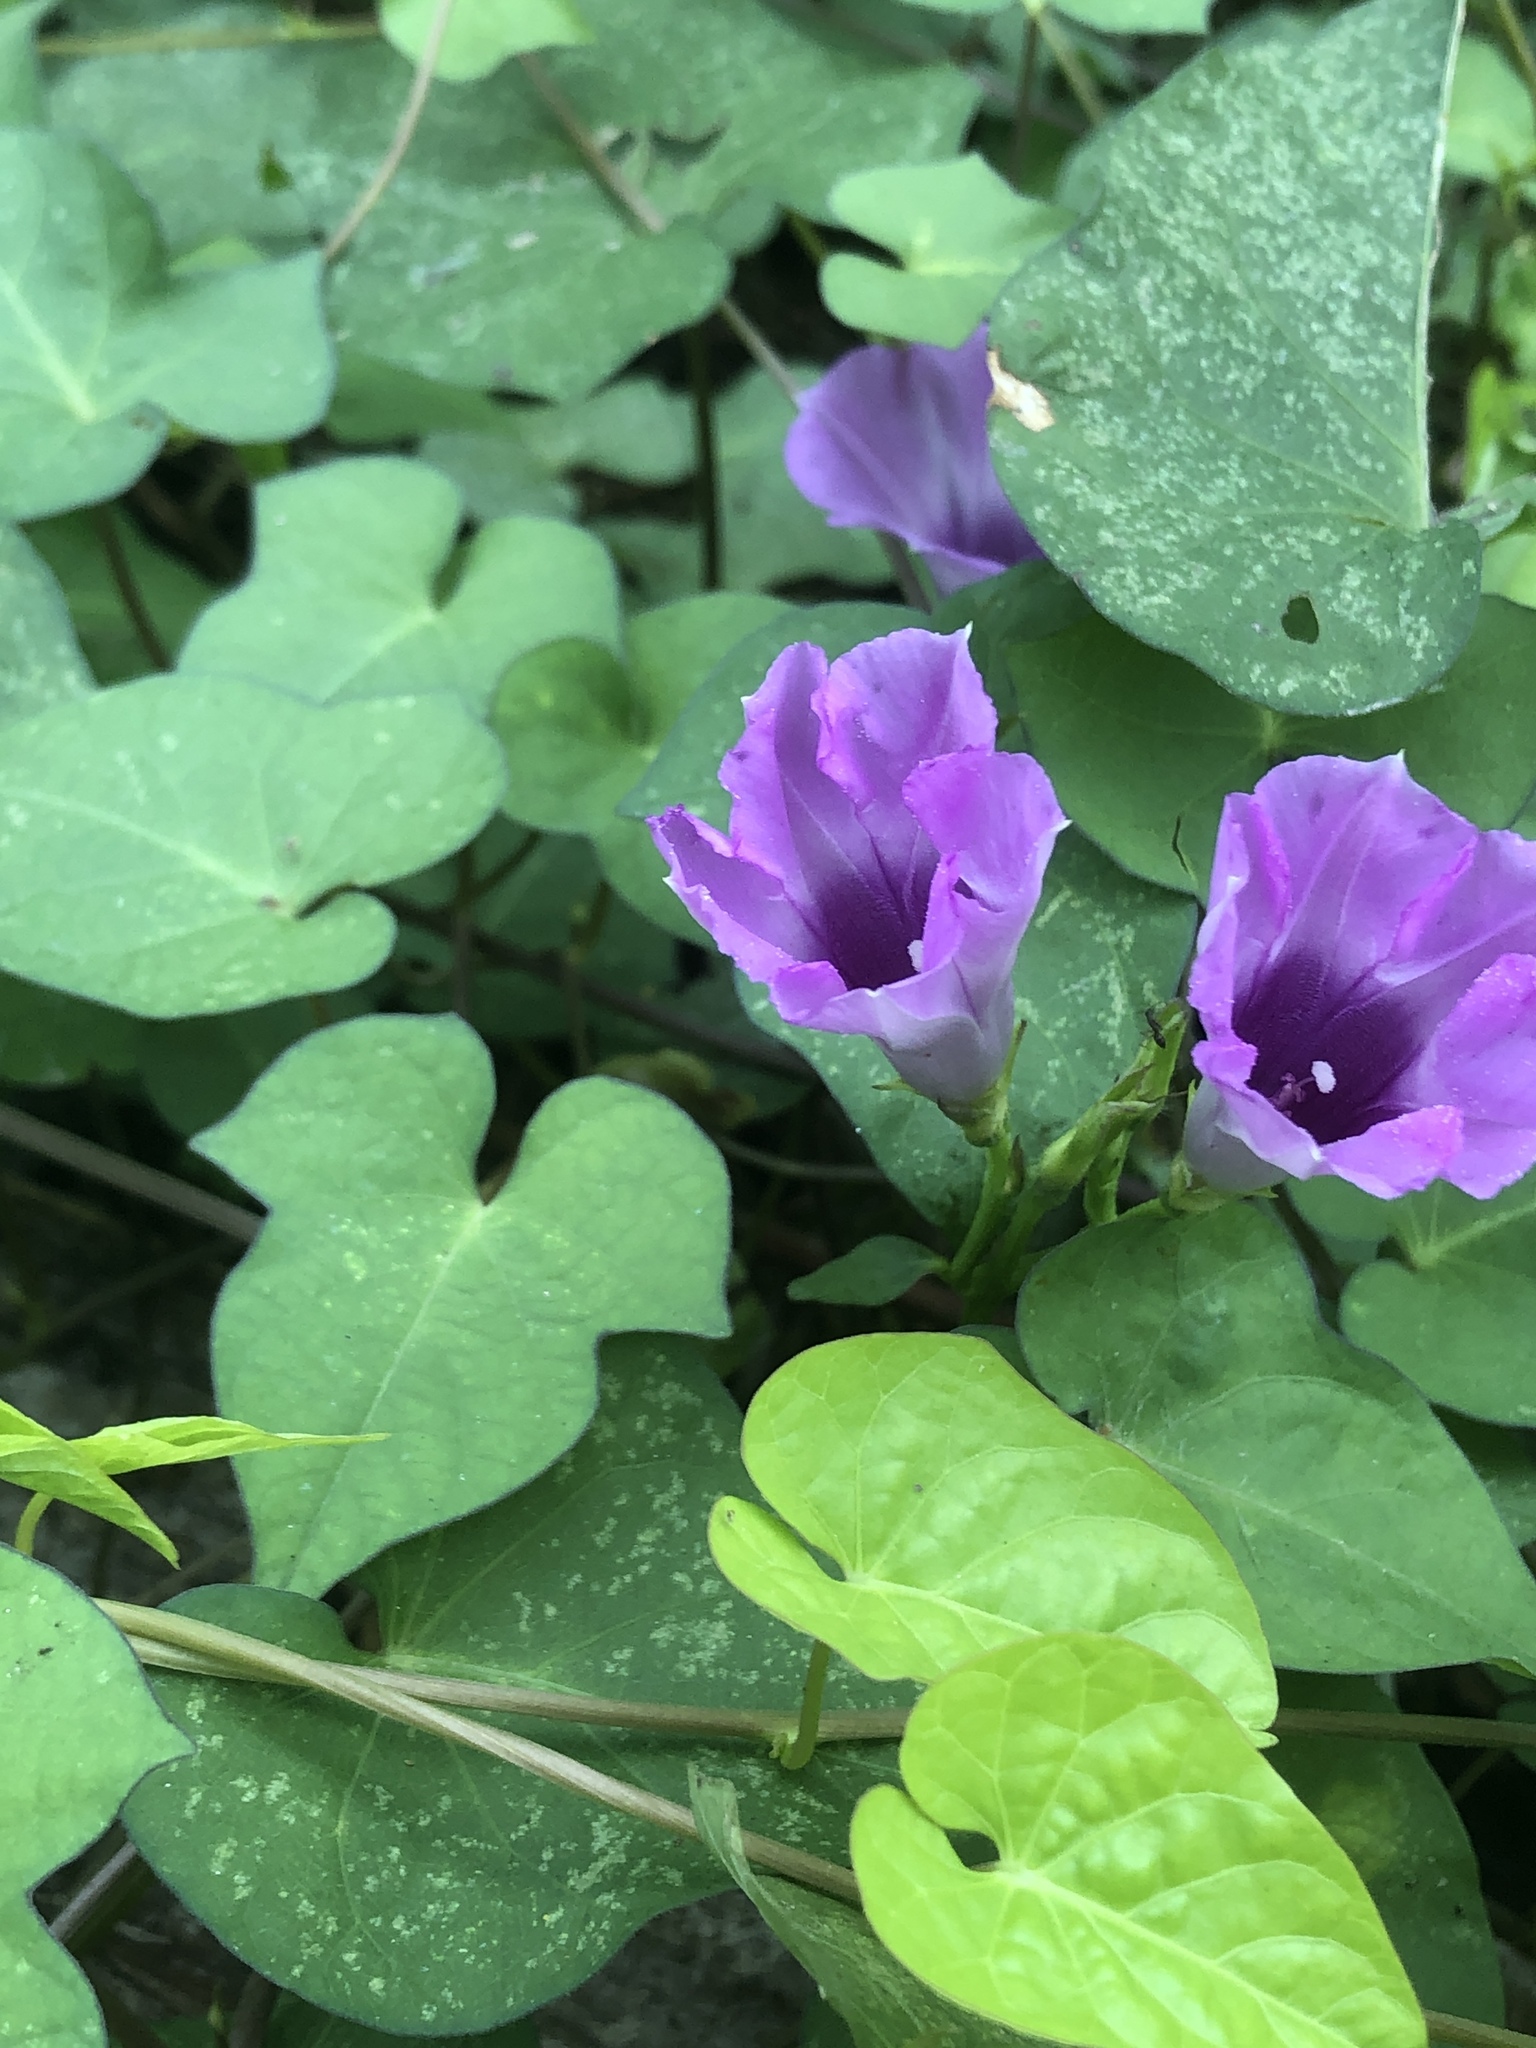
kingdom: Plantae
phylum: Tracheophyta
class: Magnoliopsida
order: Solanales
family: Convolvulaceae
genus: Ipomoea
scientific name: Ipomoea cordatotriloba
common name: Cotton morning glory
